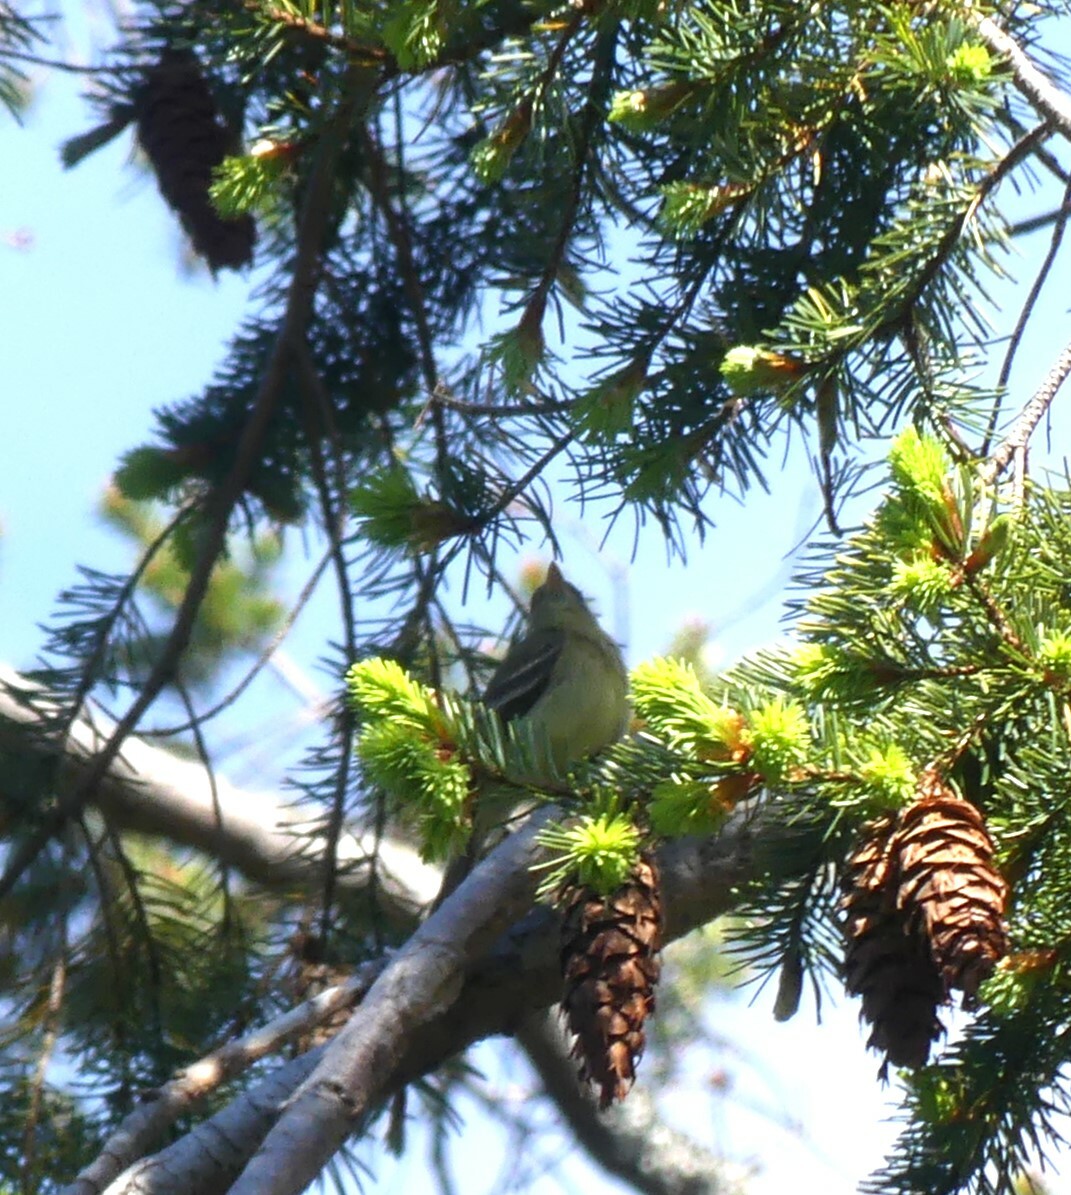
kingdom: Animalia
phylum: Chordata
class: Aves
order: Passeriformes
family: Tyrannidae
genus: Empidonax
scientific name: Empidonax difficilis
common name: Pacific-slope flycatcher
